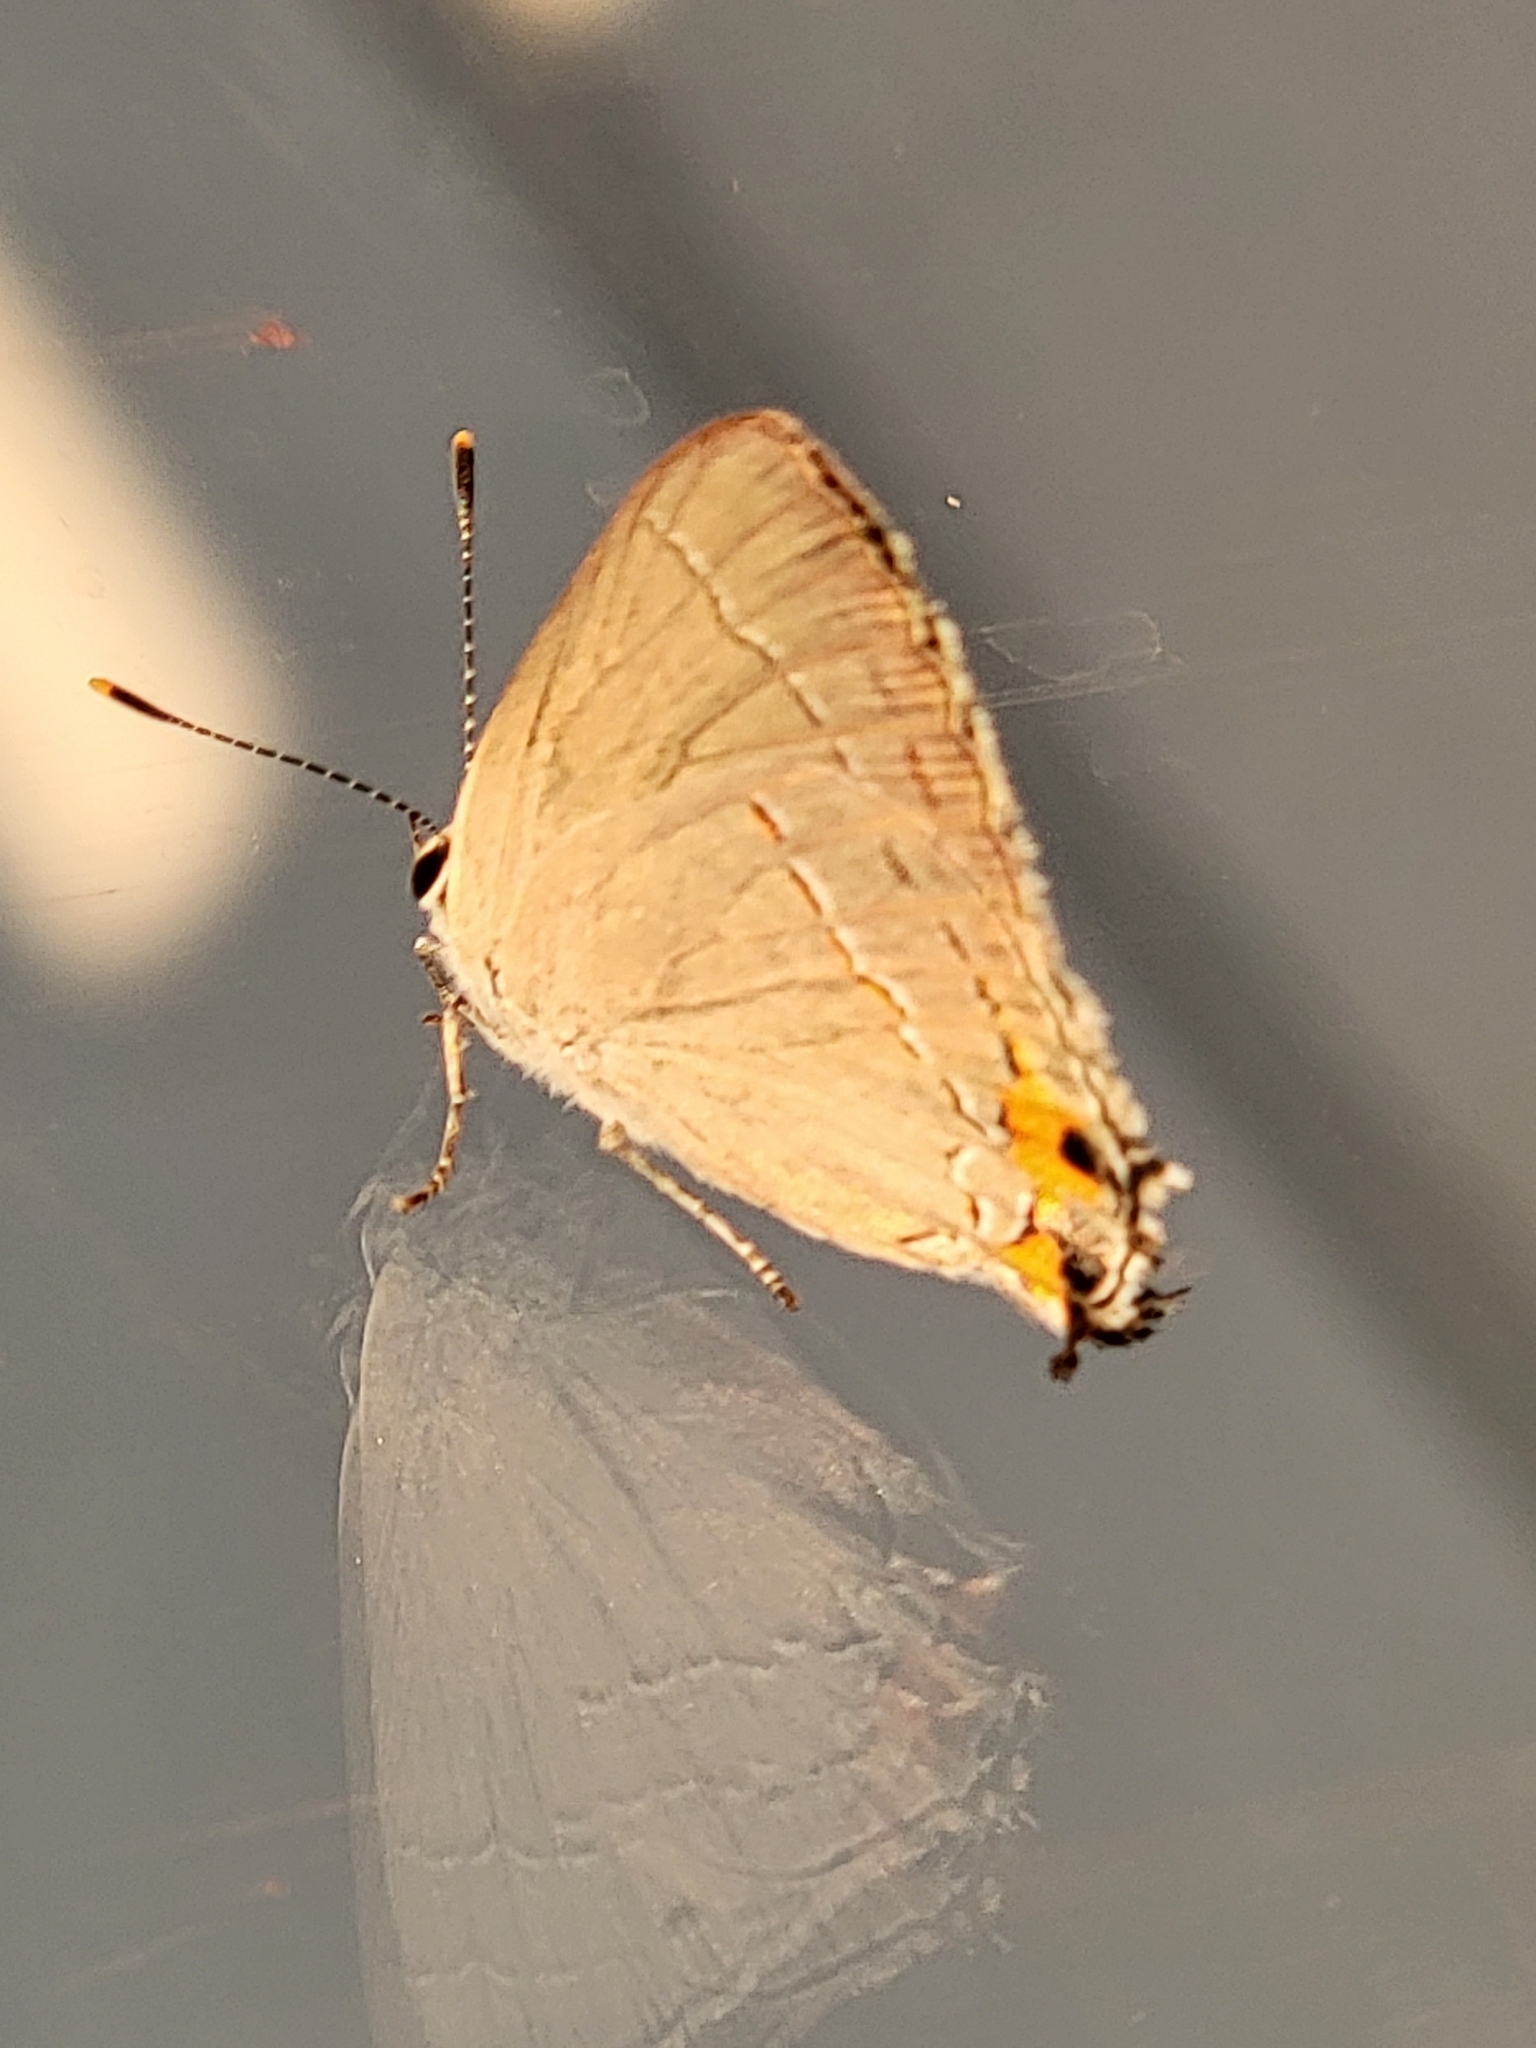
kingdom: Animalia
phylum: Arthropoda
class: Insecta
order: Lepidoptera
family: Lycaenidae
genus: Strymon
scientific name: Strymon melinus
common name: Gray hairstreak
